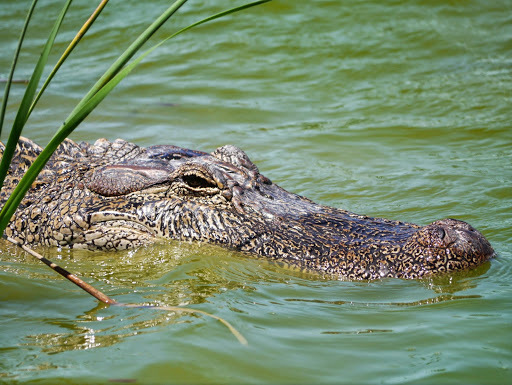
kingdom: Animalia
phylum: Chordata
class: Crocodylia
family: Alligatoridae
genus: Alligator
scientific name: Alligator mississippiensis
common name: American alligator
